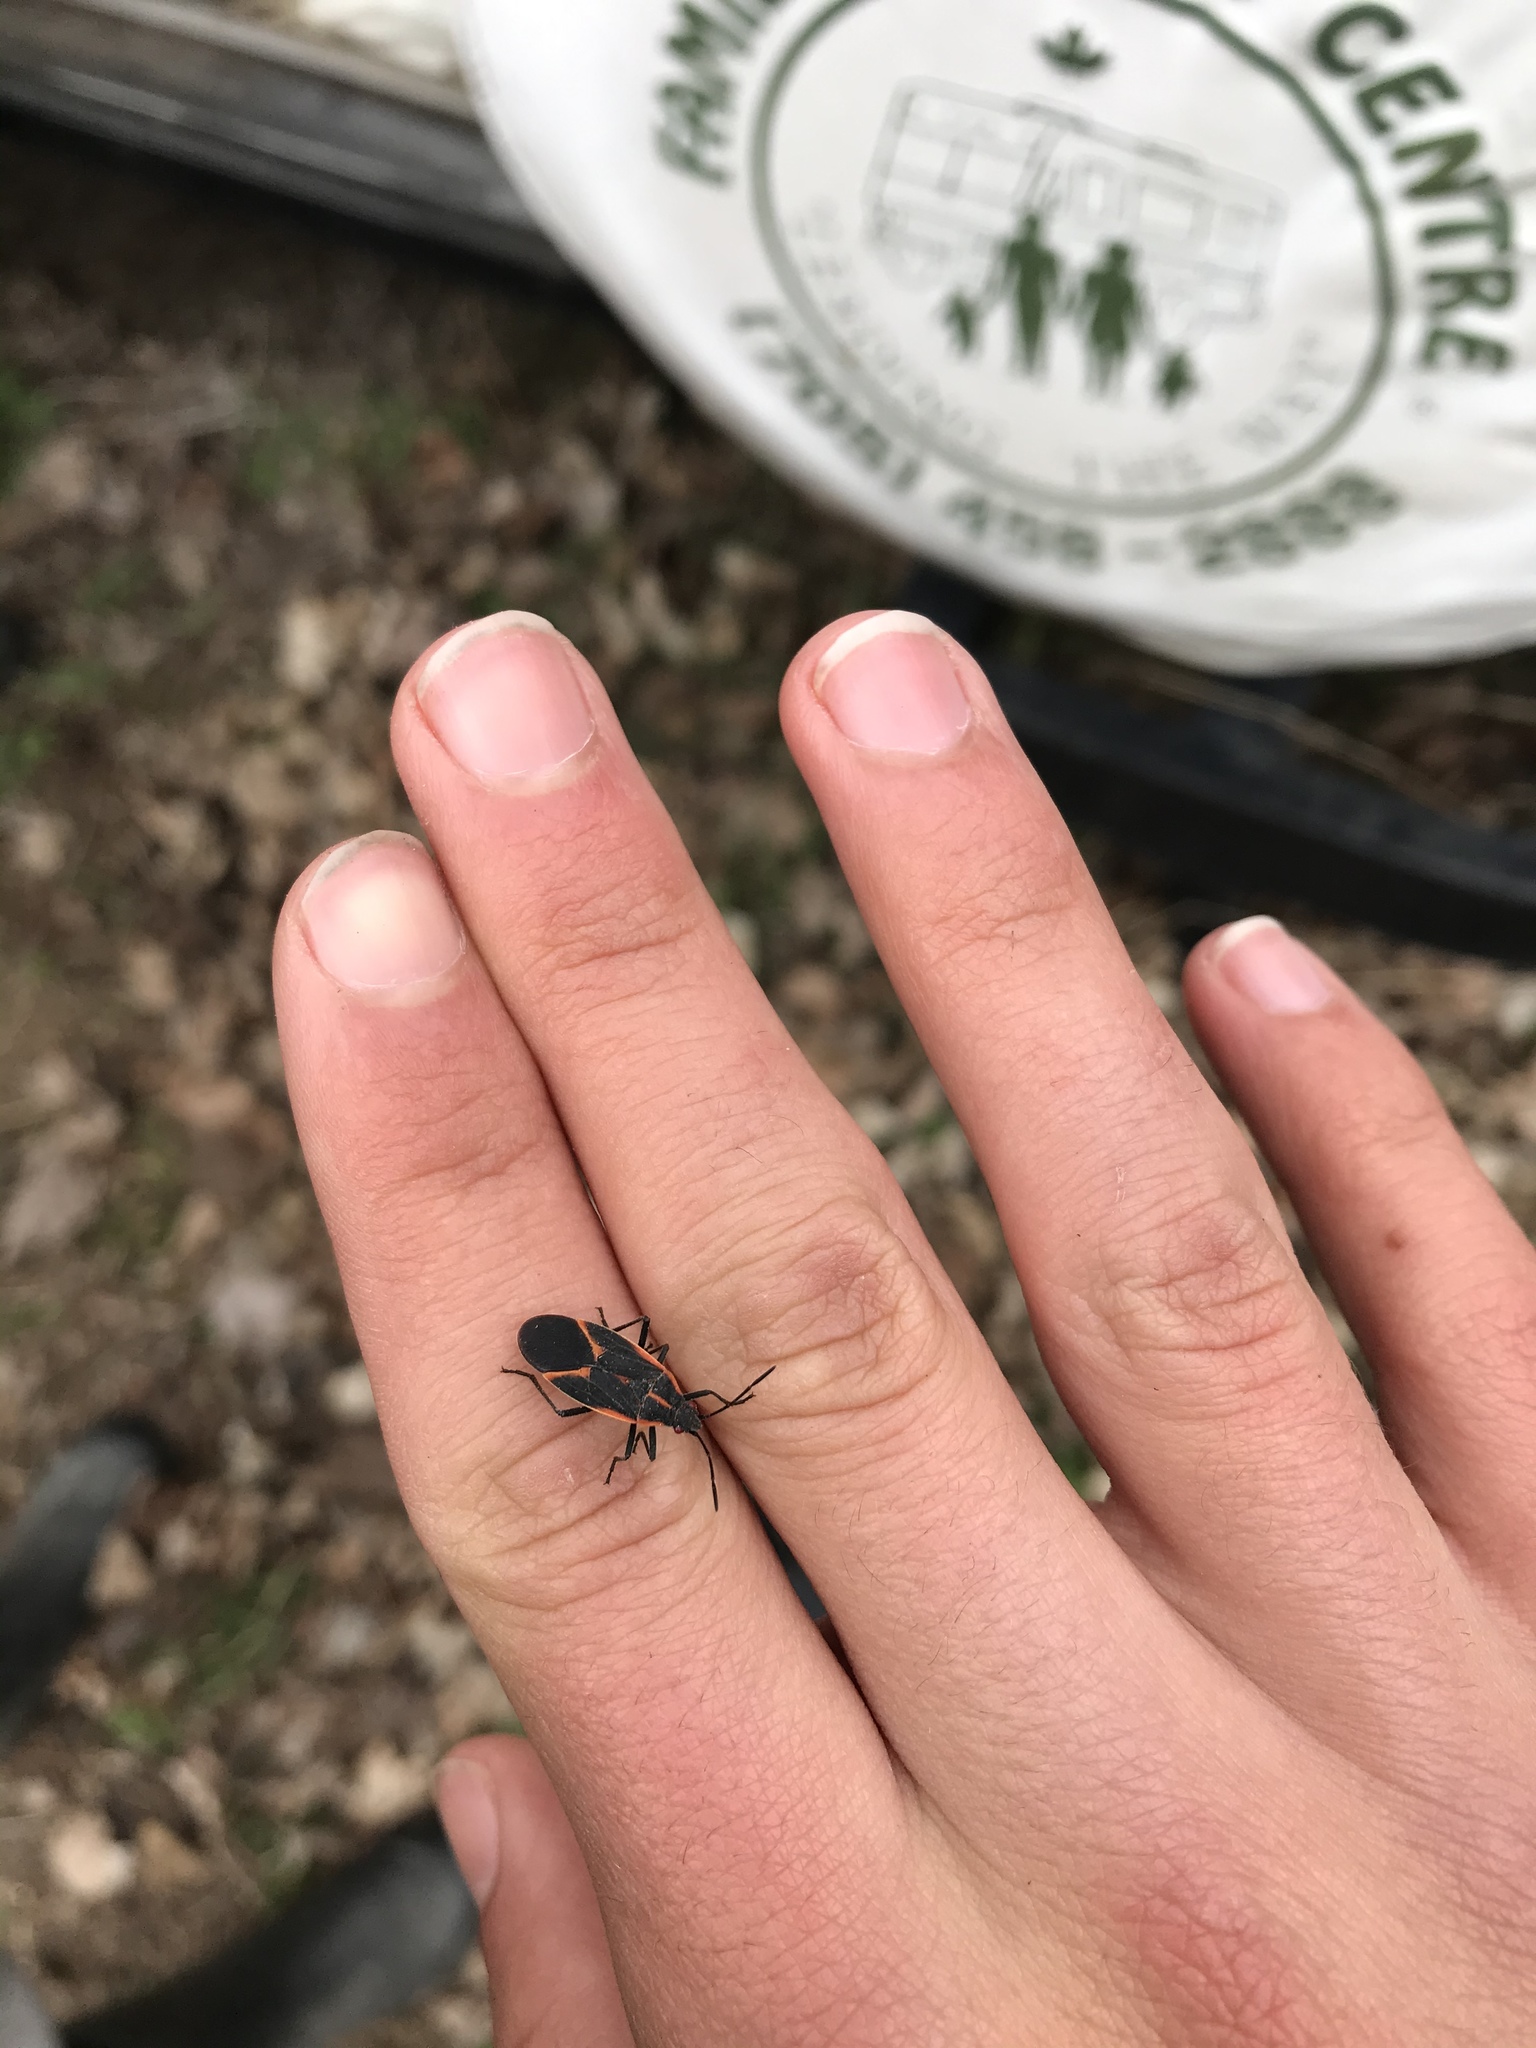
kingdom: Animalia
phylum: Arthropoda
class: Insecta
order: Hemiptera
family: Rhopalidae
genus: Boisea
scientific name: Boisea trivittata
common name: Boxelder bug
